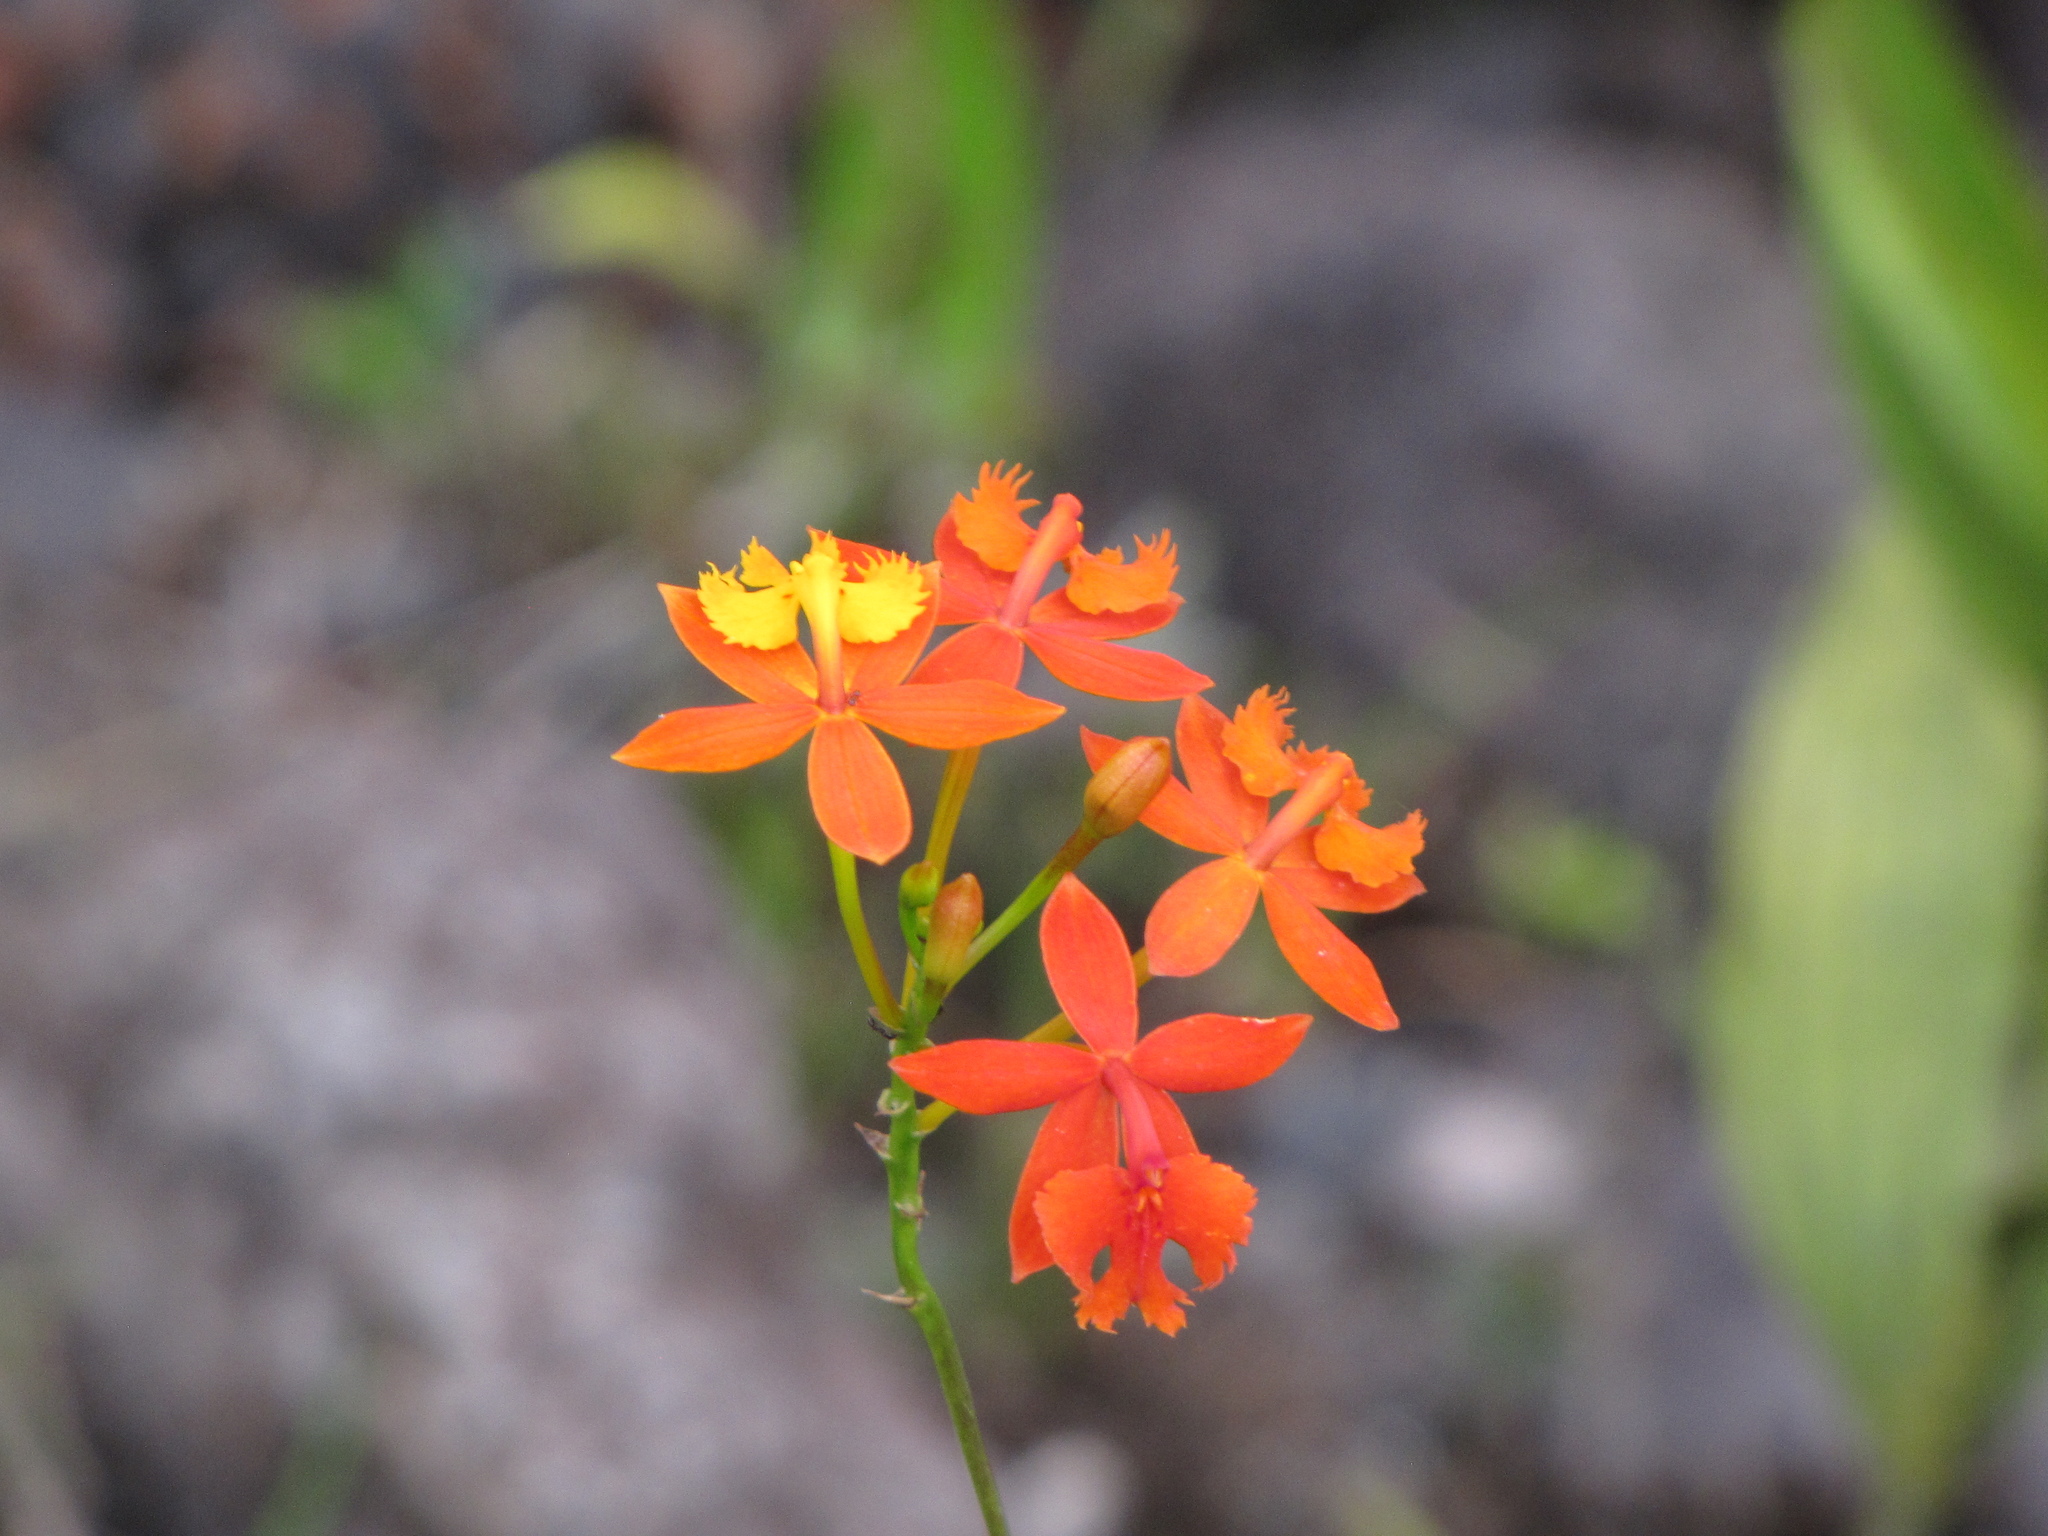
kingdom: Plantae
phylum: Tracheophyta
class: Liliopsida
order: Asparagales
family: Orchidaceae
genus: Epidendrum
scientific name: Epidendrum radicans
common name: Fire star orchid
